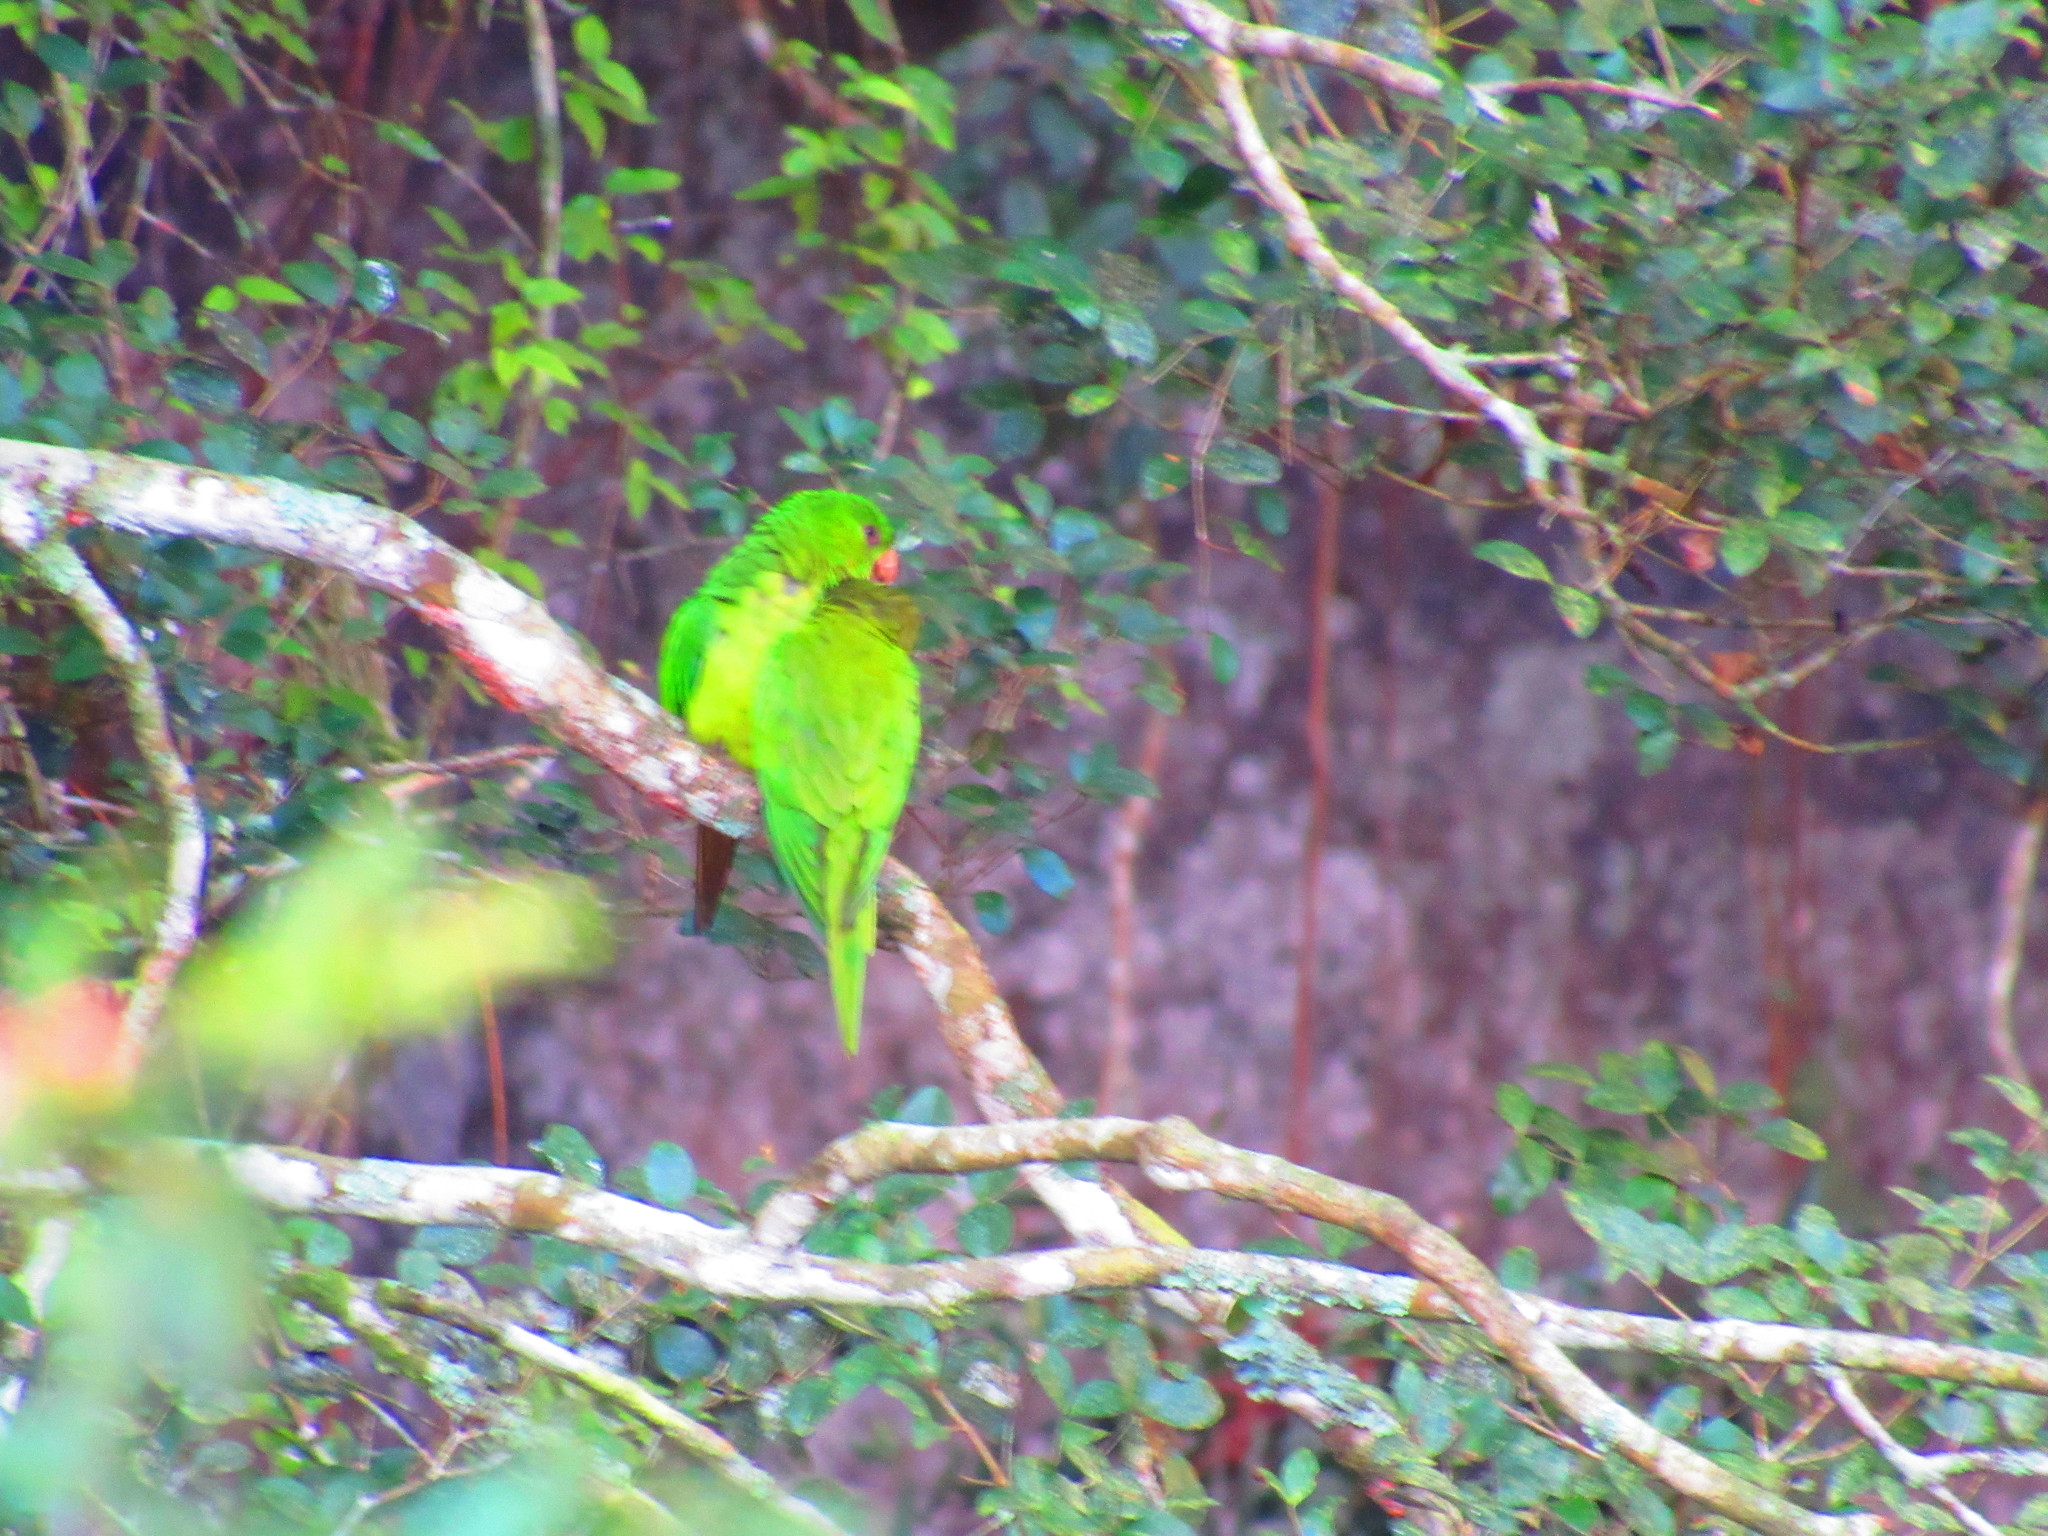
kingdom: Animalia
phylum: Chordata
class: Aves
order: Psittaciformes
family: Psittacidae
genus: Aratinga
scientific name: Aratinga holochlora
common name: Green parakeet
